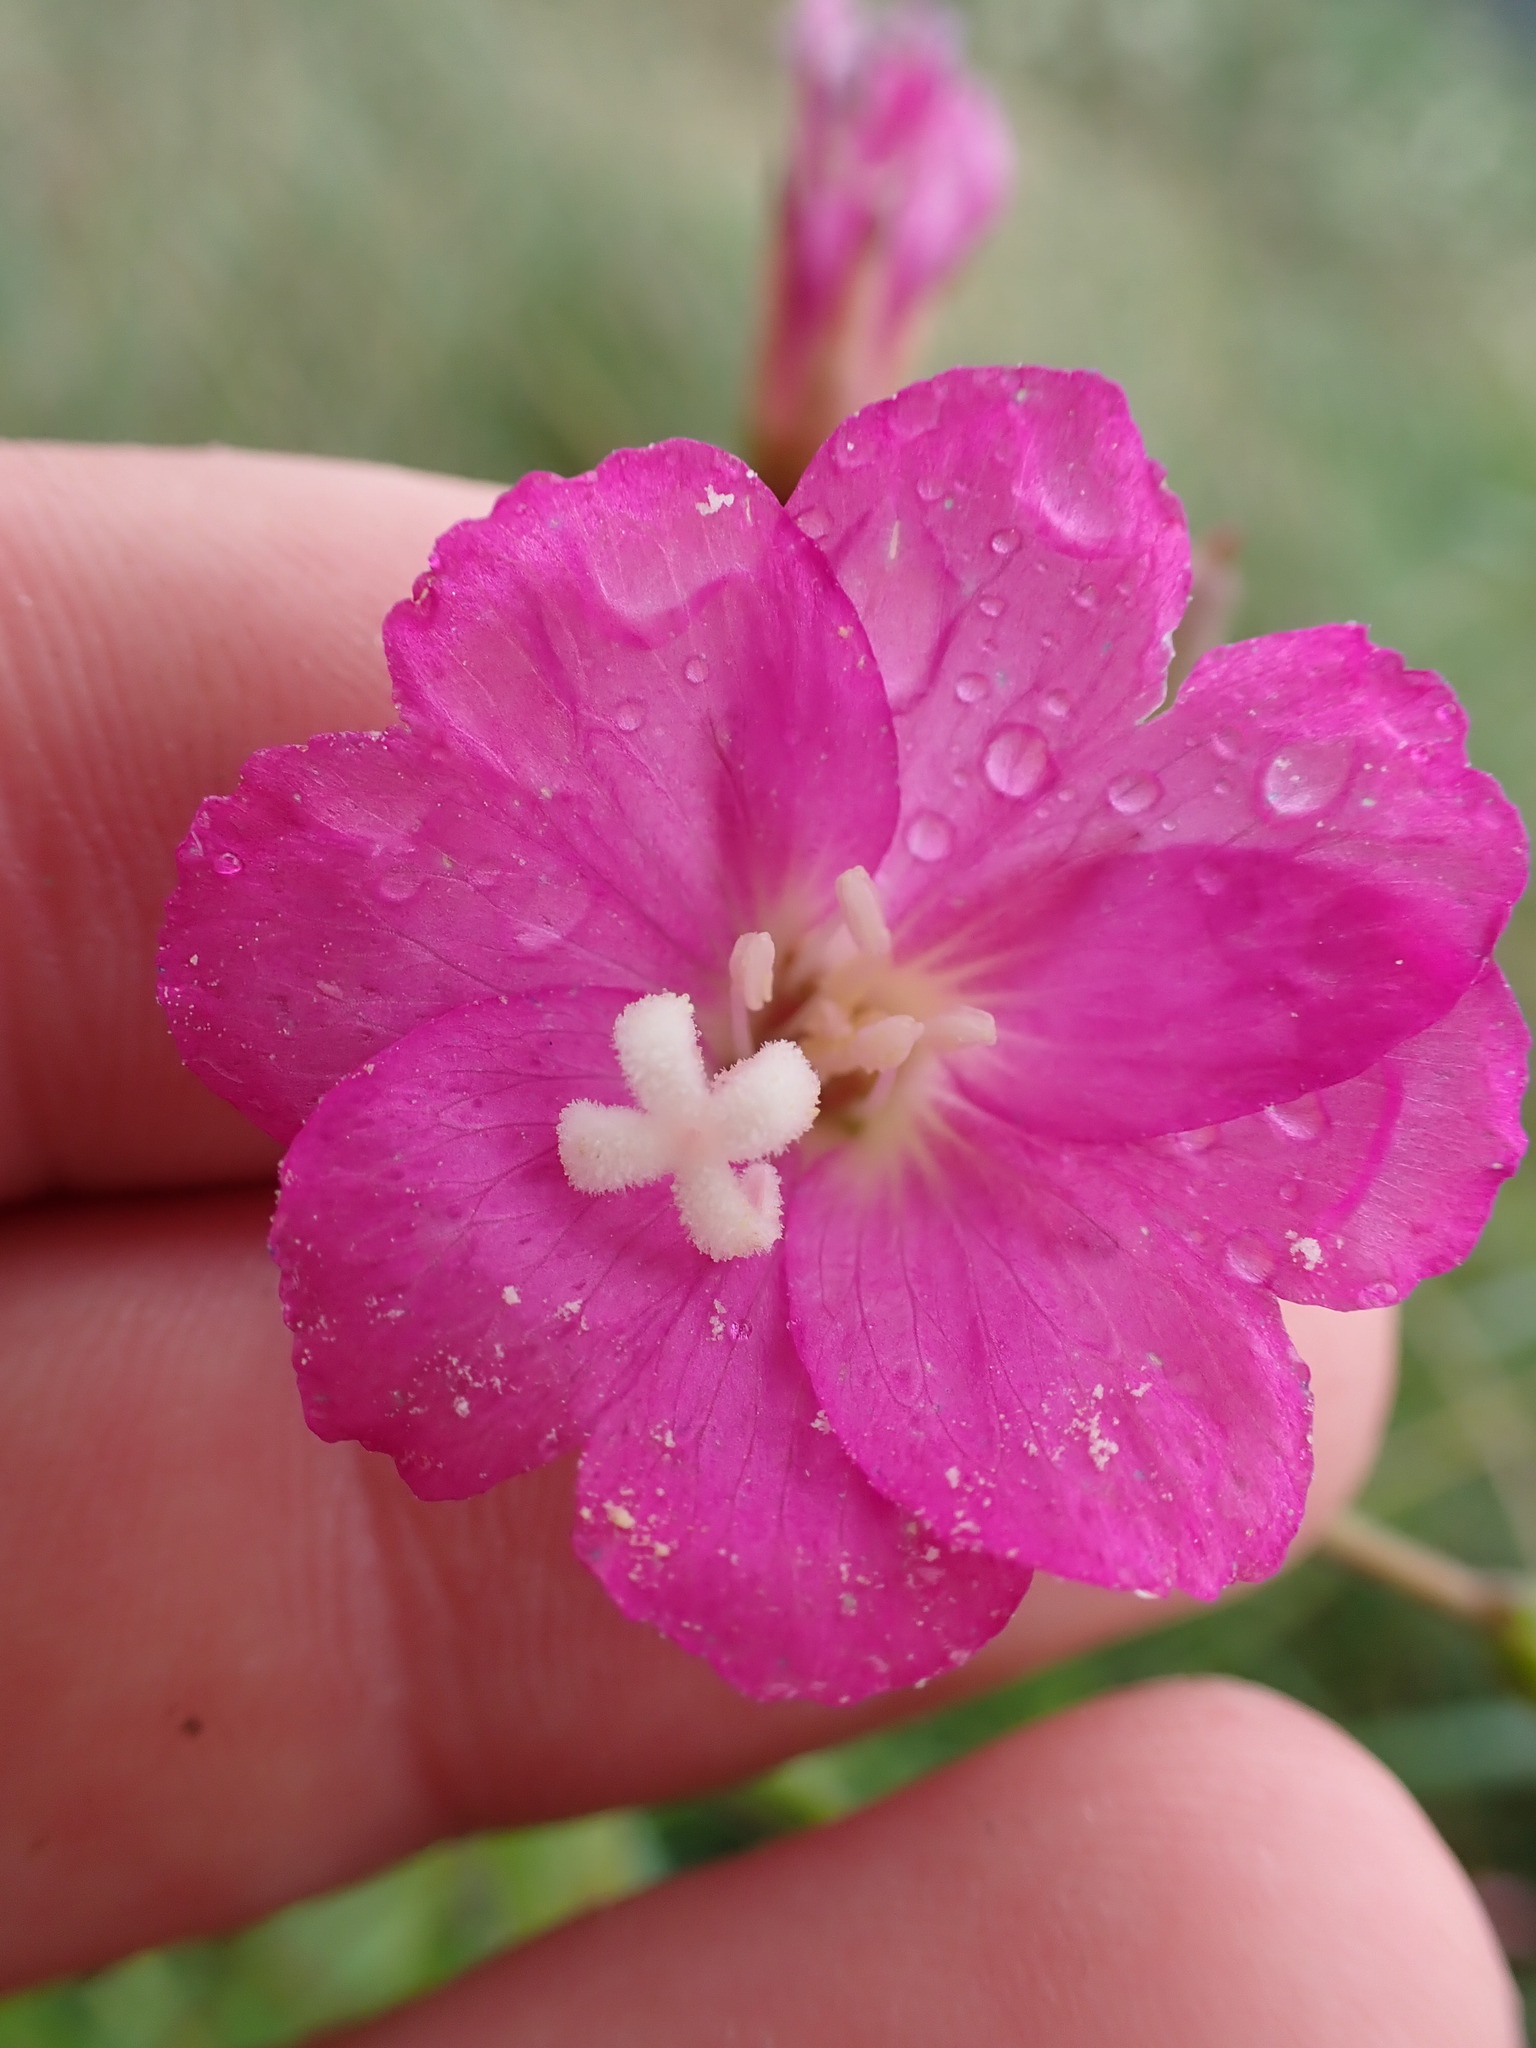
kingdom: Plantae
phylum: Tracheophyta
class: Magnoliopsida
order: Myrtales
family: Onagraceae
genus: Epilobium
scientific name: Epilobium hirsutum
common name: Great willowherb
